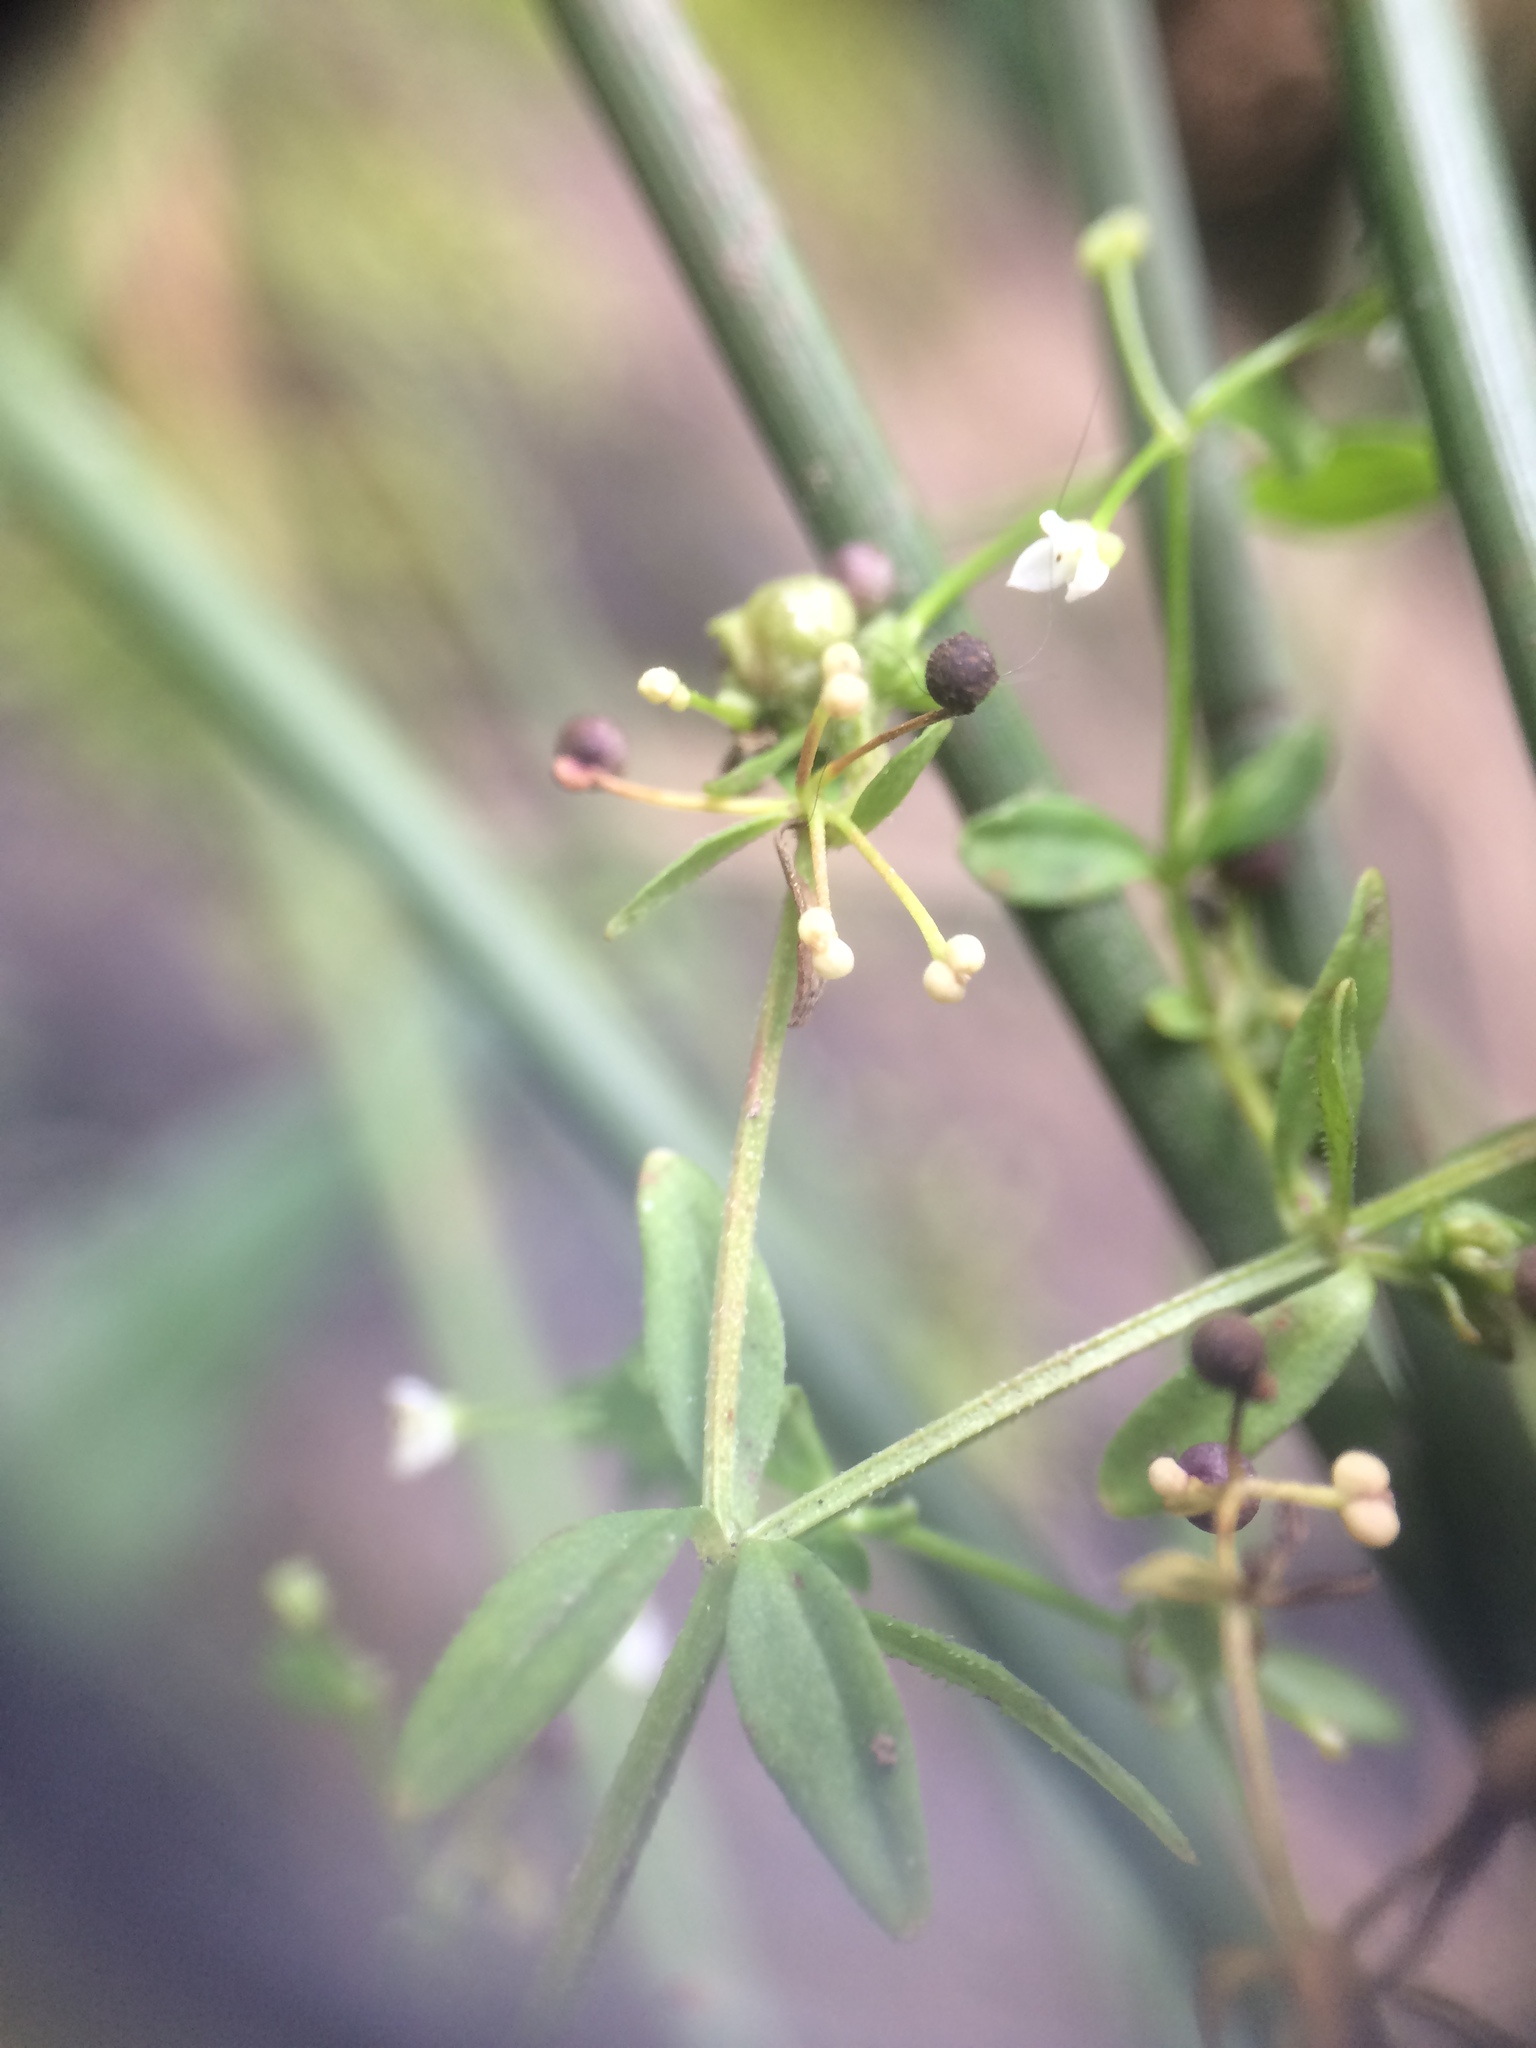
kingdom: Plantae
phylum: Tracheophyta
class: Magnoliopsida
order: Gentianales
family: Rubiaceae
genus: Galium
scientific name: Galium trifidum
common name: Small bedstraw
